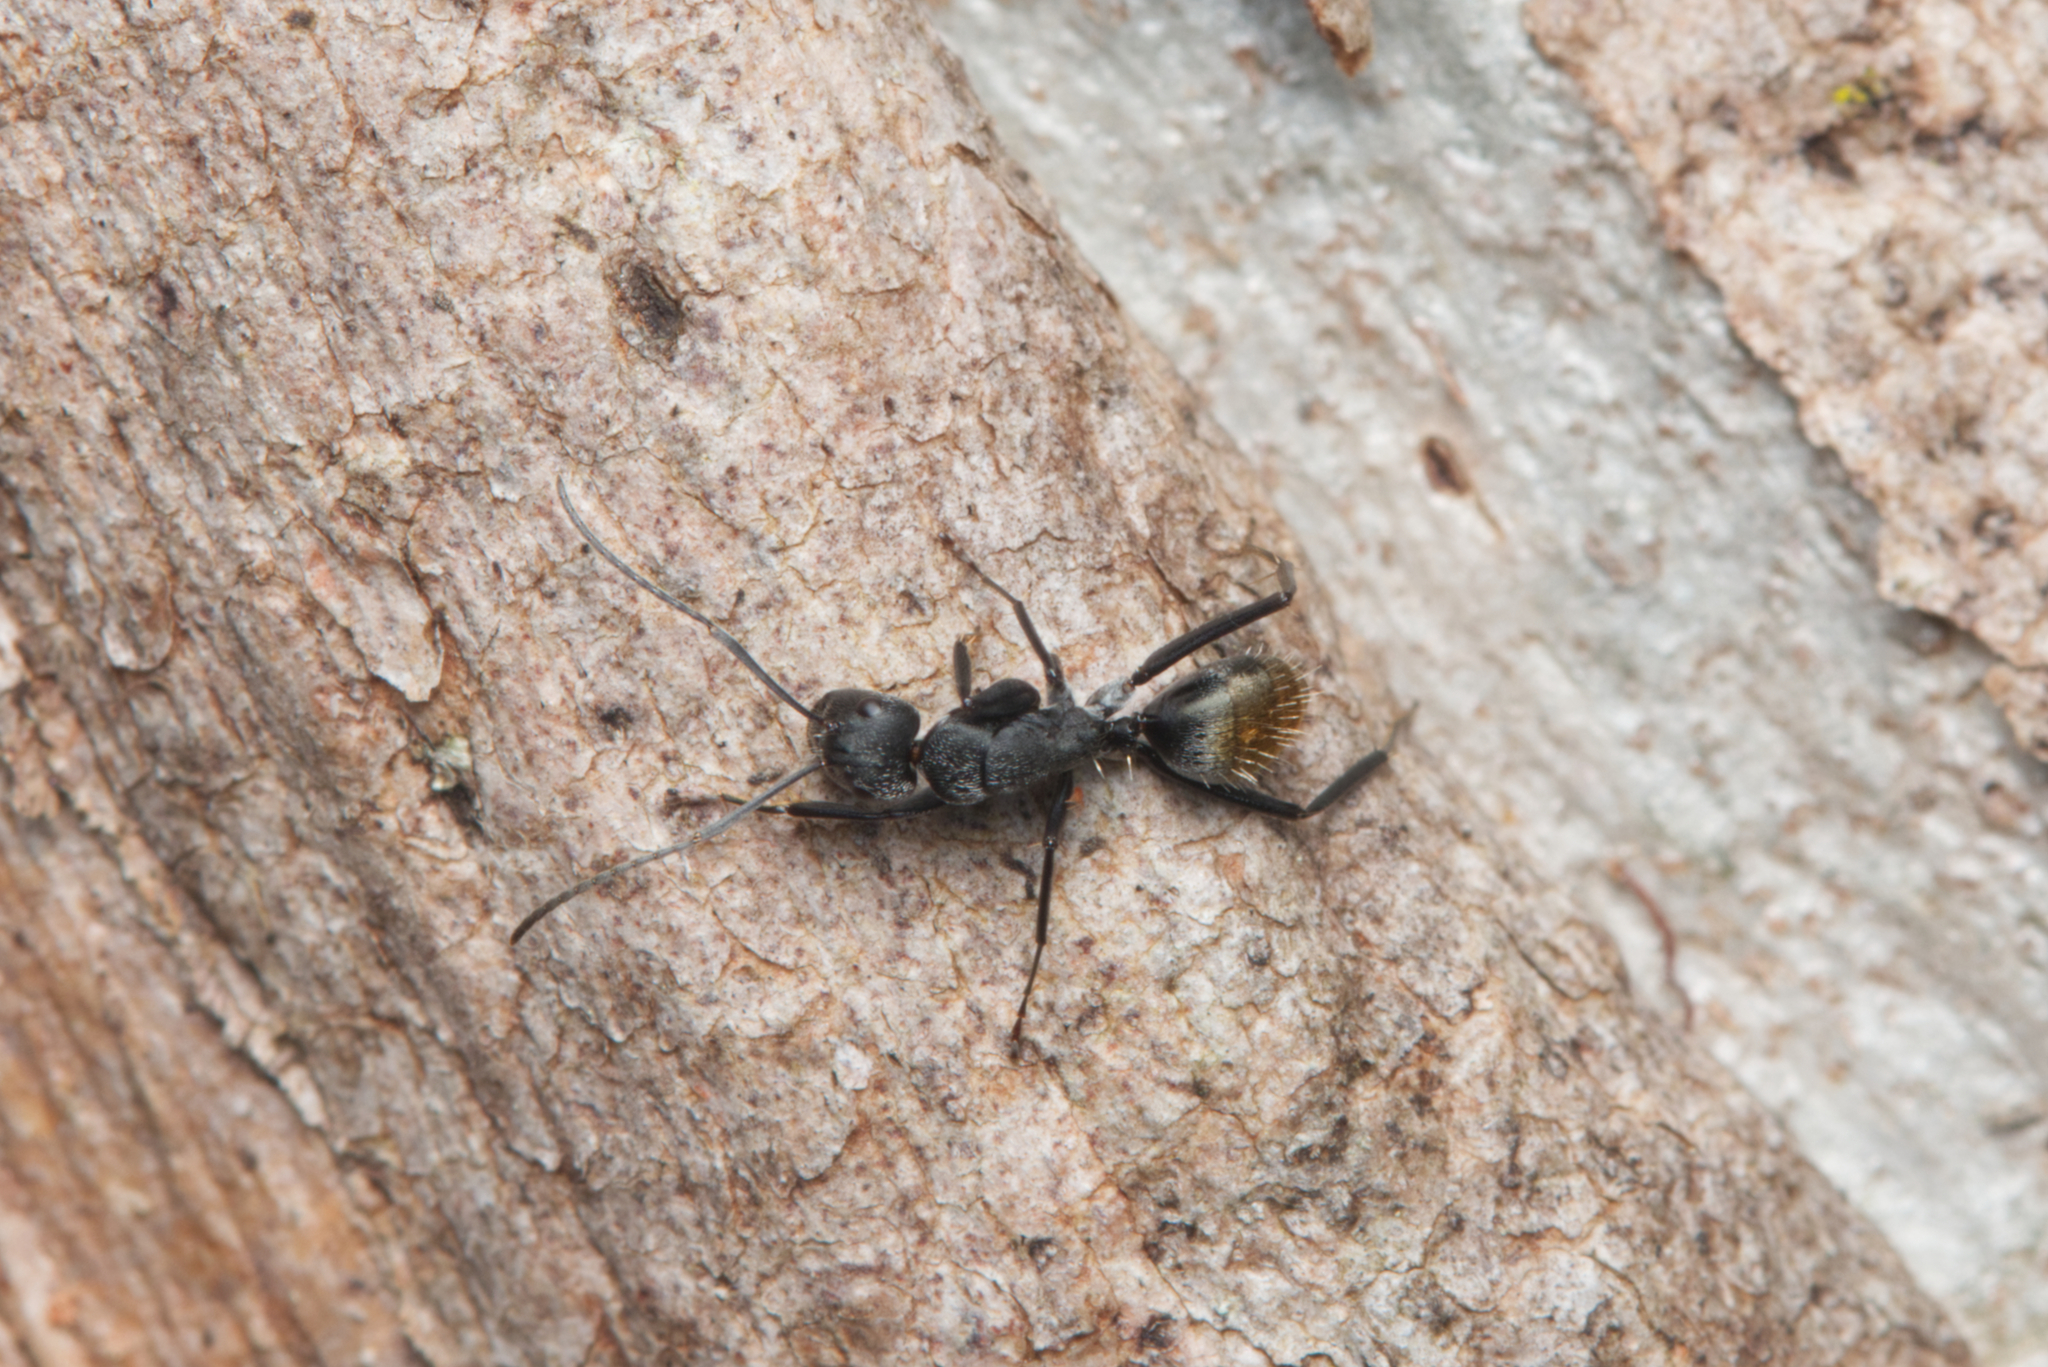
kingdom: Animalia
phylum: Arthropoda
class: Insecta
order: Hymenoptera
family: Formicidae
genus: Camponotus
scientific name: Camponotus aeneopilosus
